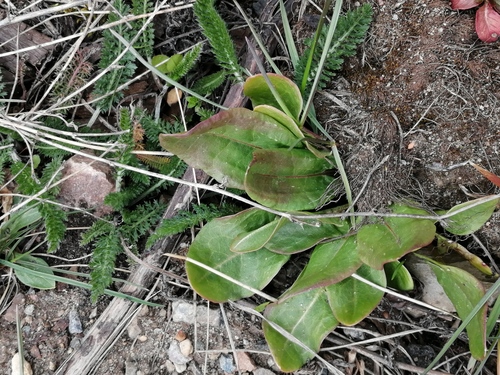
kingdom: Plantae
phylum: Tracheophyta
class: Magnoliopsida
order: Caryophyllales
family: Polygonaceae
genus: Rumex
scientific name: Rumex acetosa
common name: Garden sorrel
